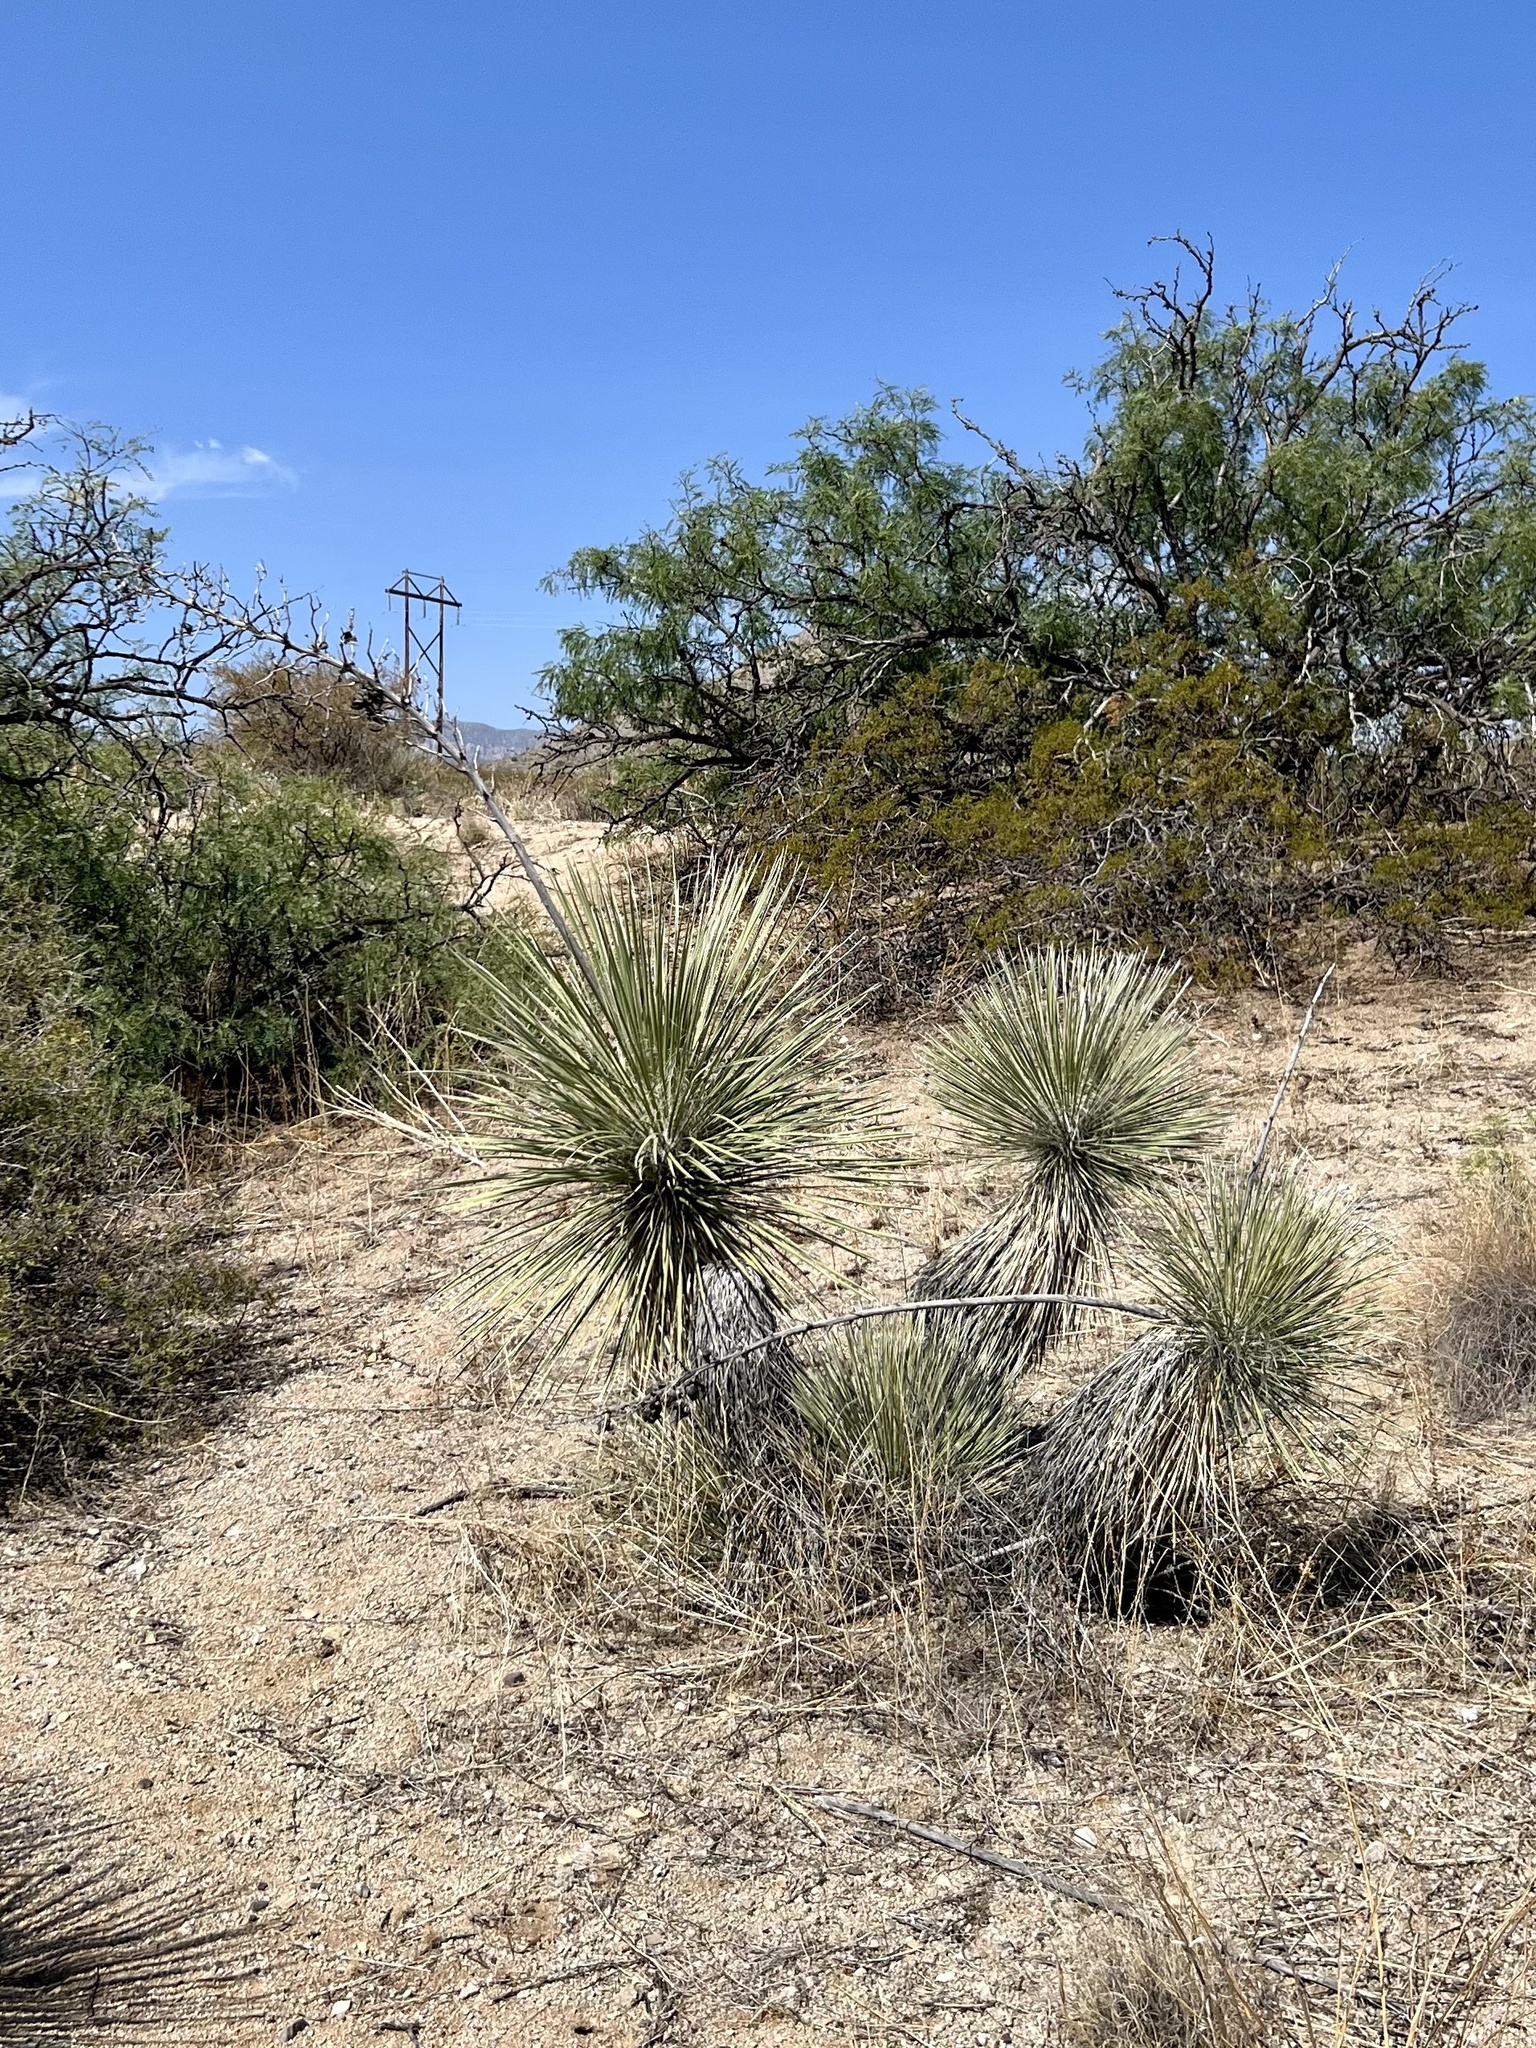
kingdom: Plantae
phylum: Tracheophyta
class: Liliopsida
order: Asparagales
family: Asparagaceae
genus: Yucca
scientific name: Yucca elata
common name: Palmella
